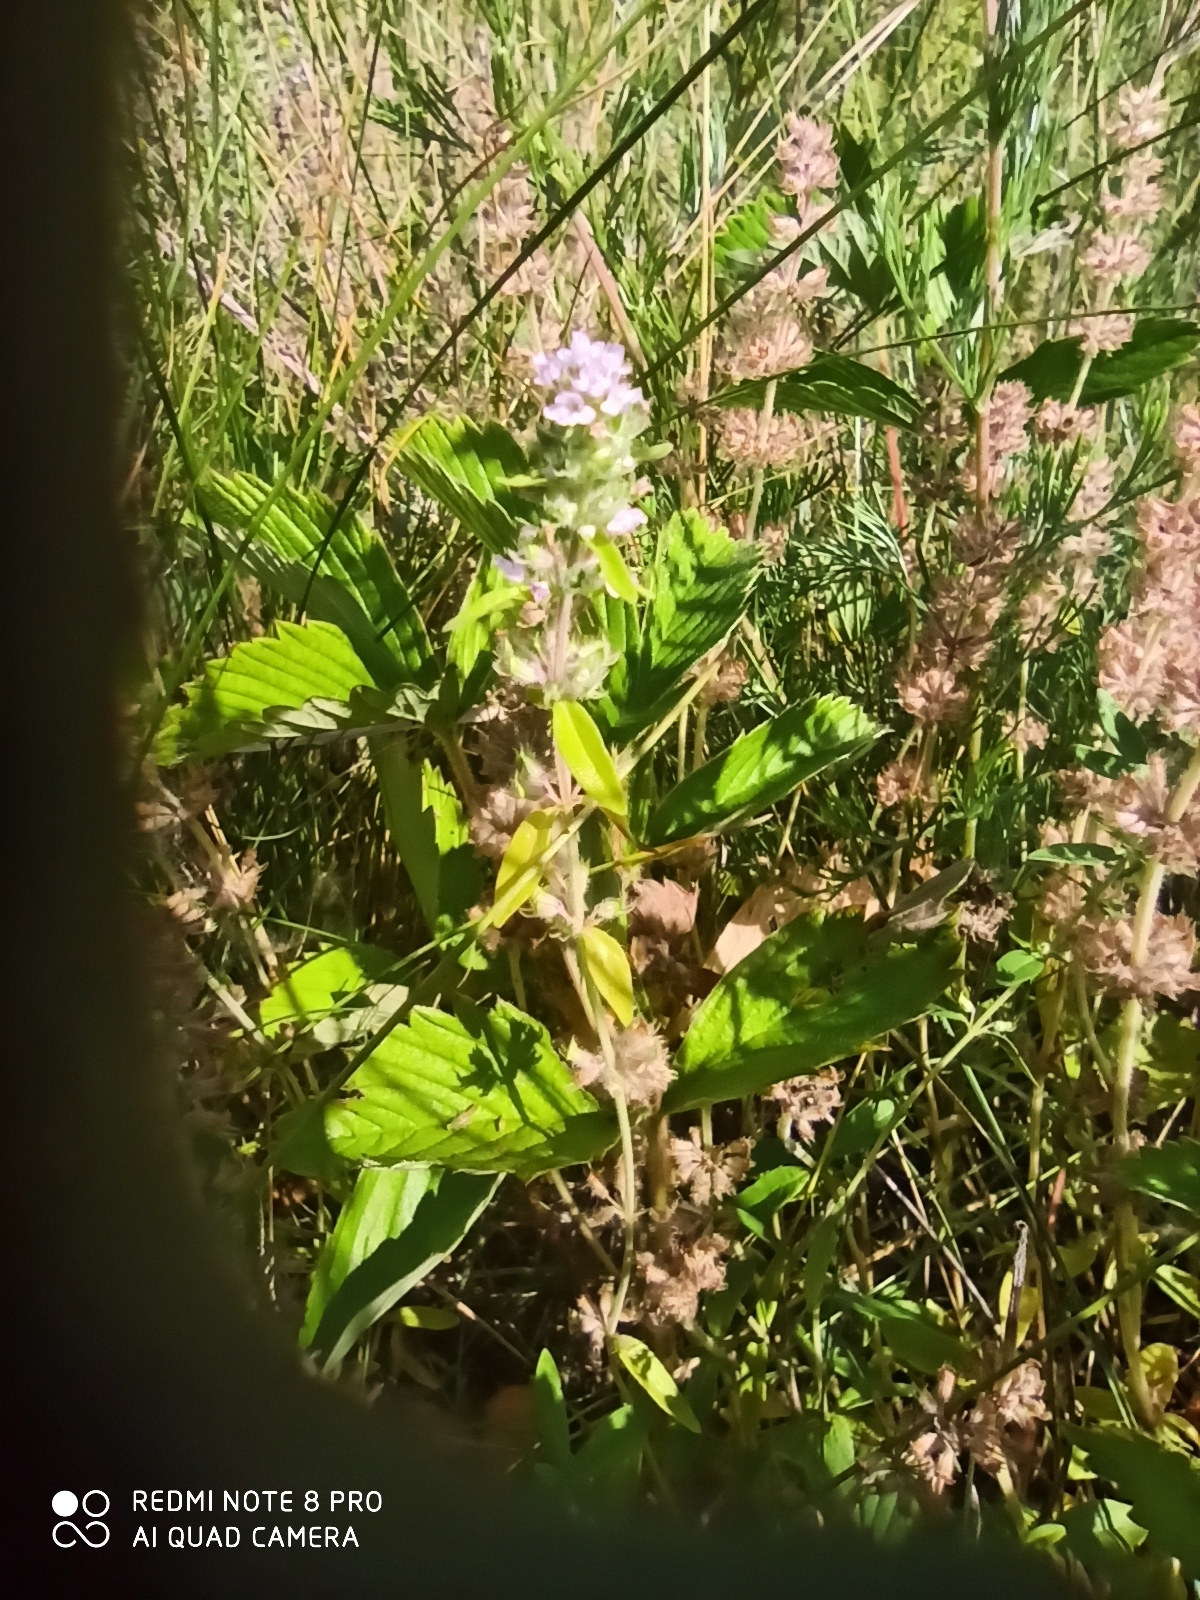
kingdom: Plantae
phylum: Tracheophyta
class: Magnoliopsida
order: Lamiales
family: Lamiaceae
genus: Thymus
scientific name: Thymus pannonicus
